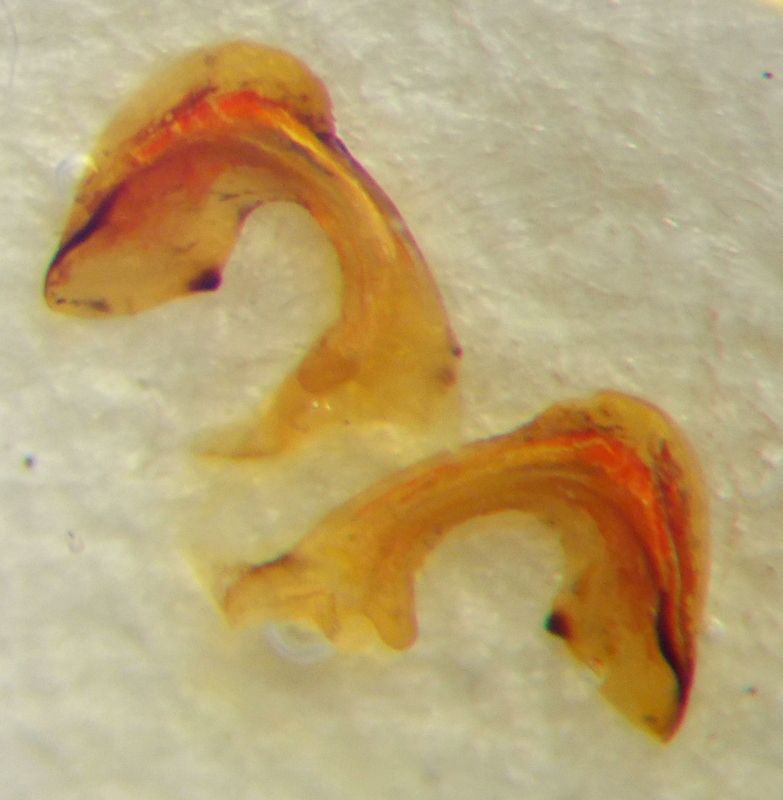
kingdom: Animalia
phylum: Arthropoda
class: Insecta
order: Hemiptera
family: Pentatomidae
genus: Carpocoris
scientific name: Carpocoris mediterraneus
